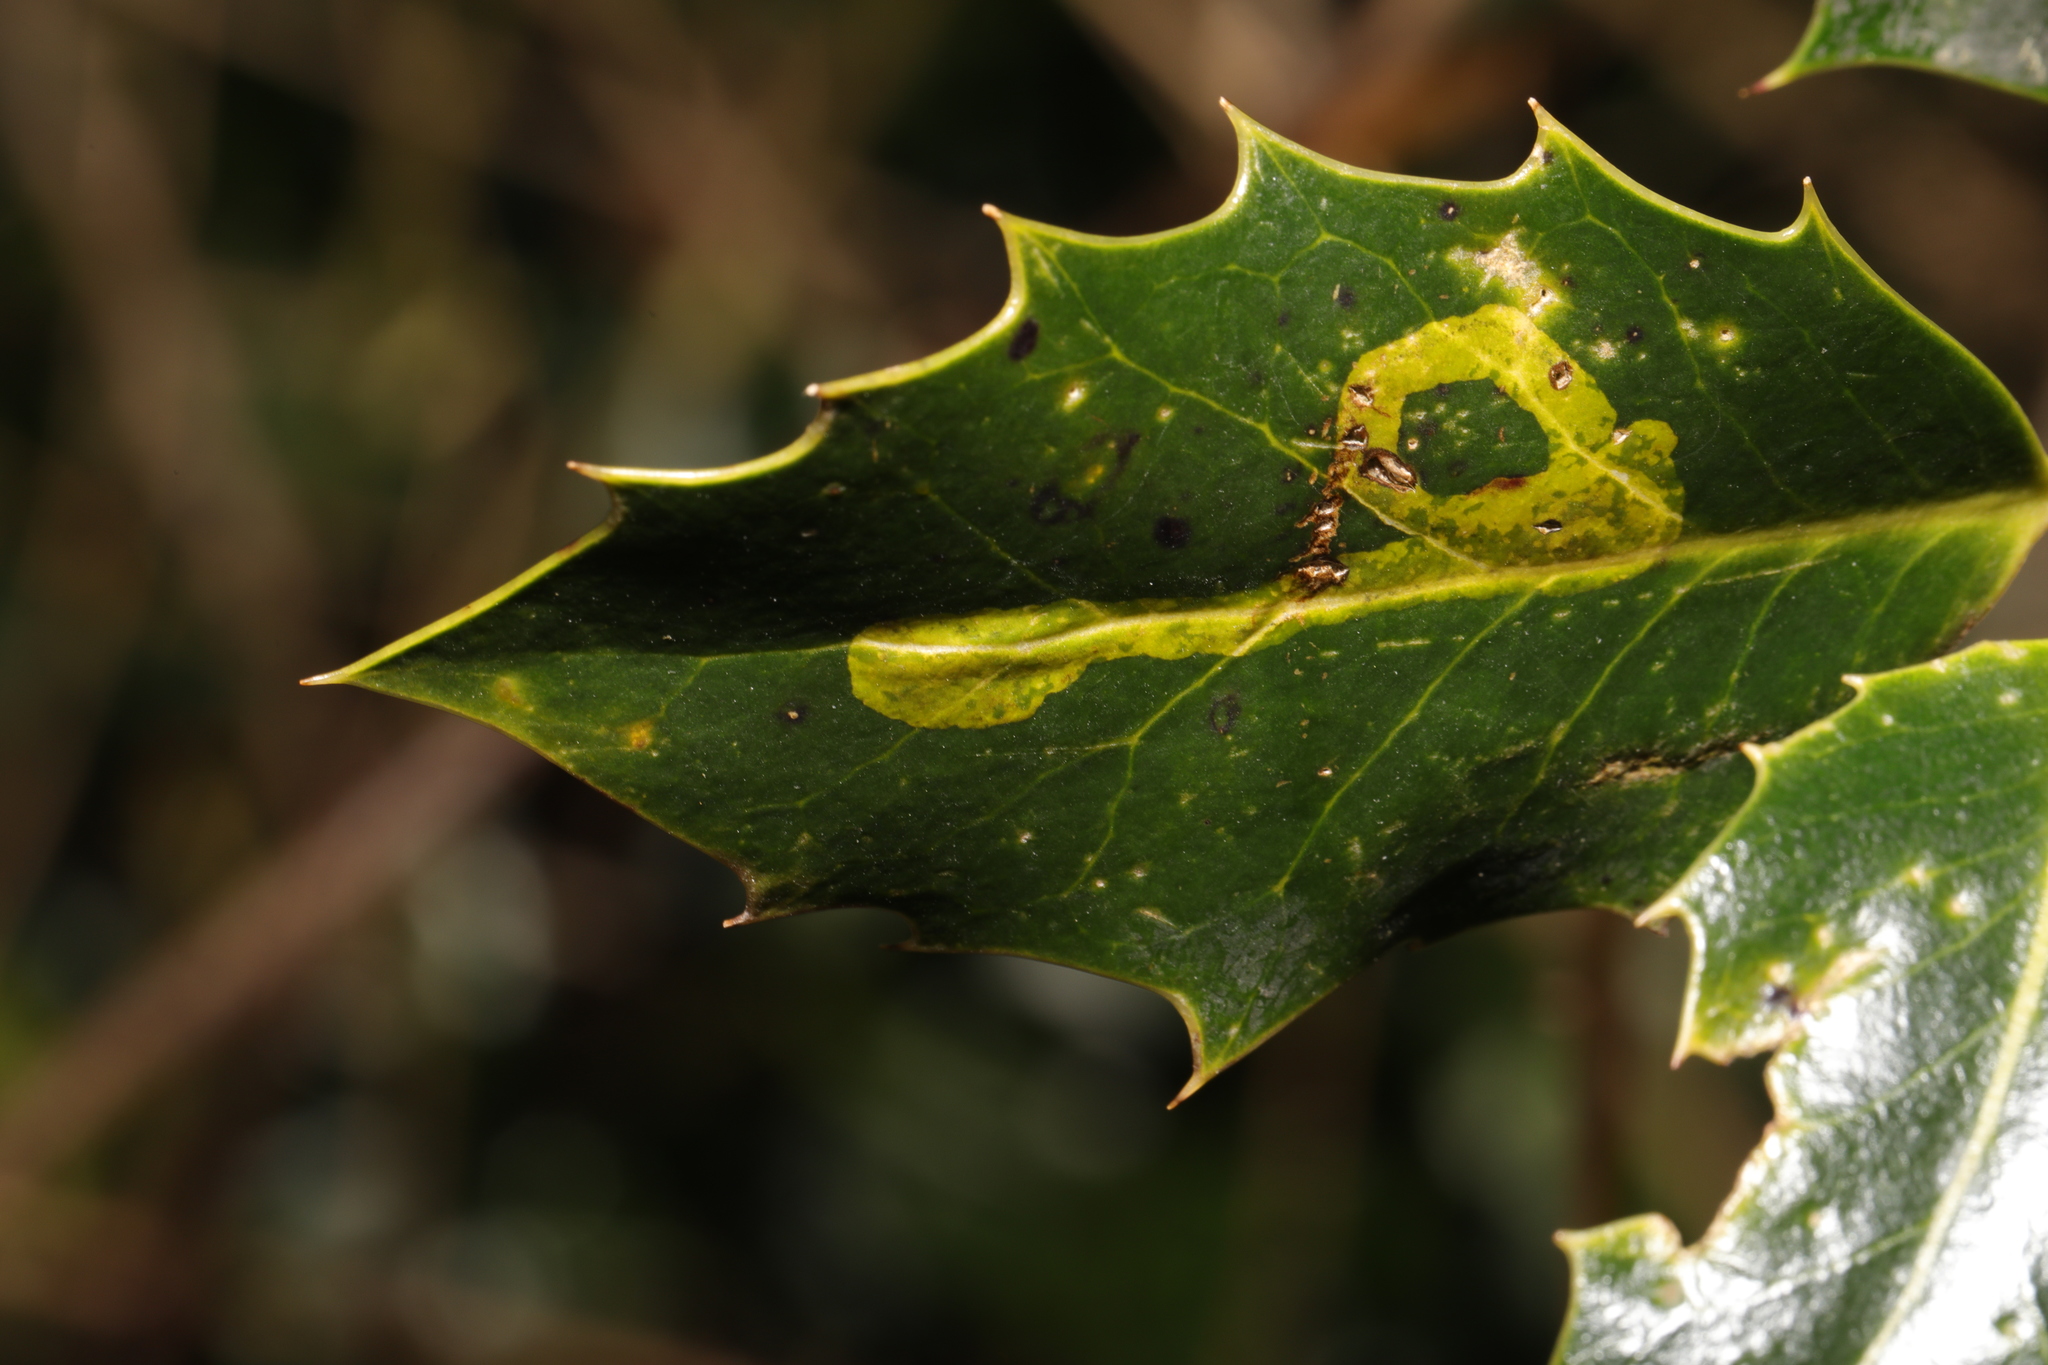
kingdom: Animalia
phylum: Arthropoda
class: Insecta
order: Diptera
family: Agromyzidae
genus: Phytomyza
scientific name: Phytomyza ilicis
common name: Holly leafminer
